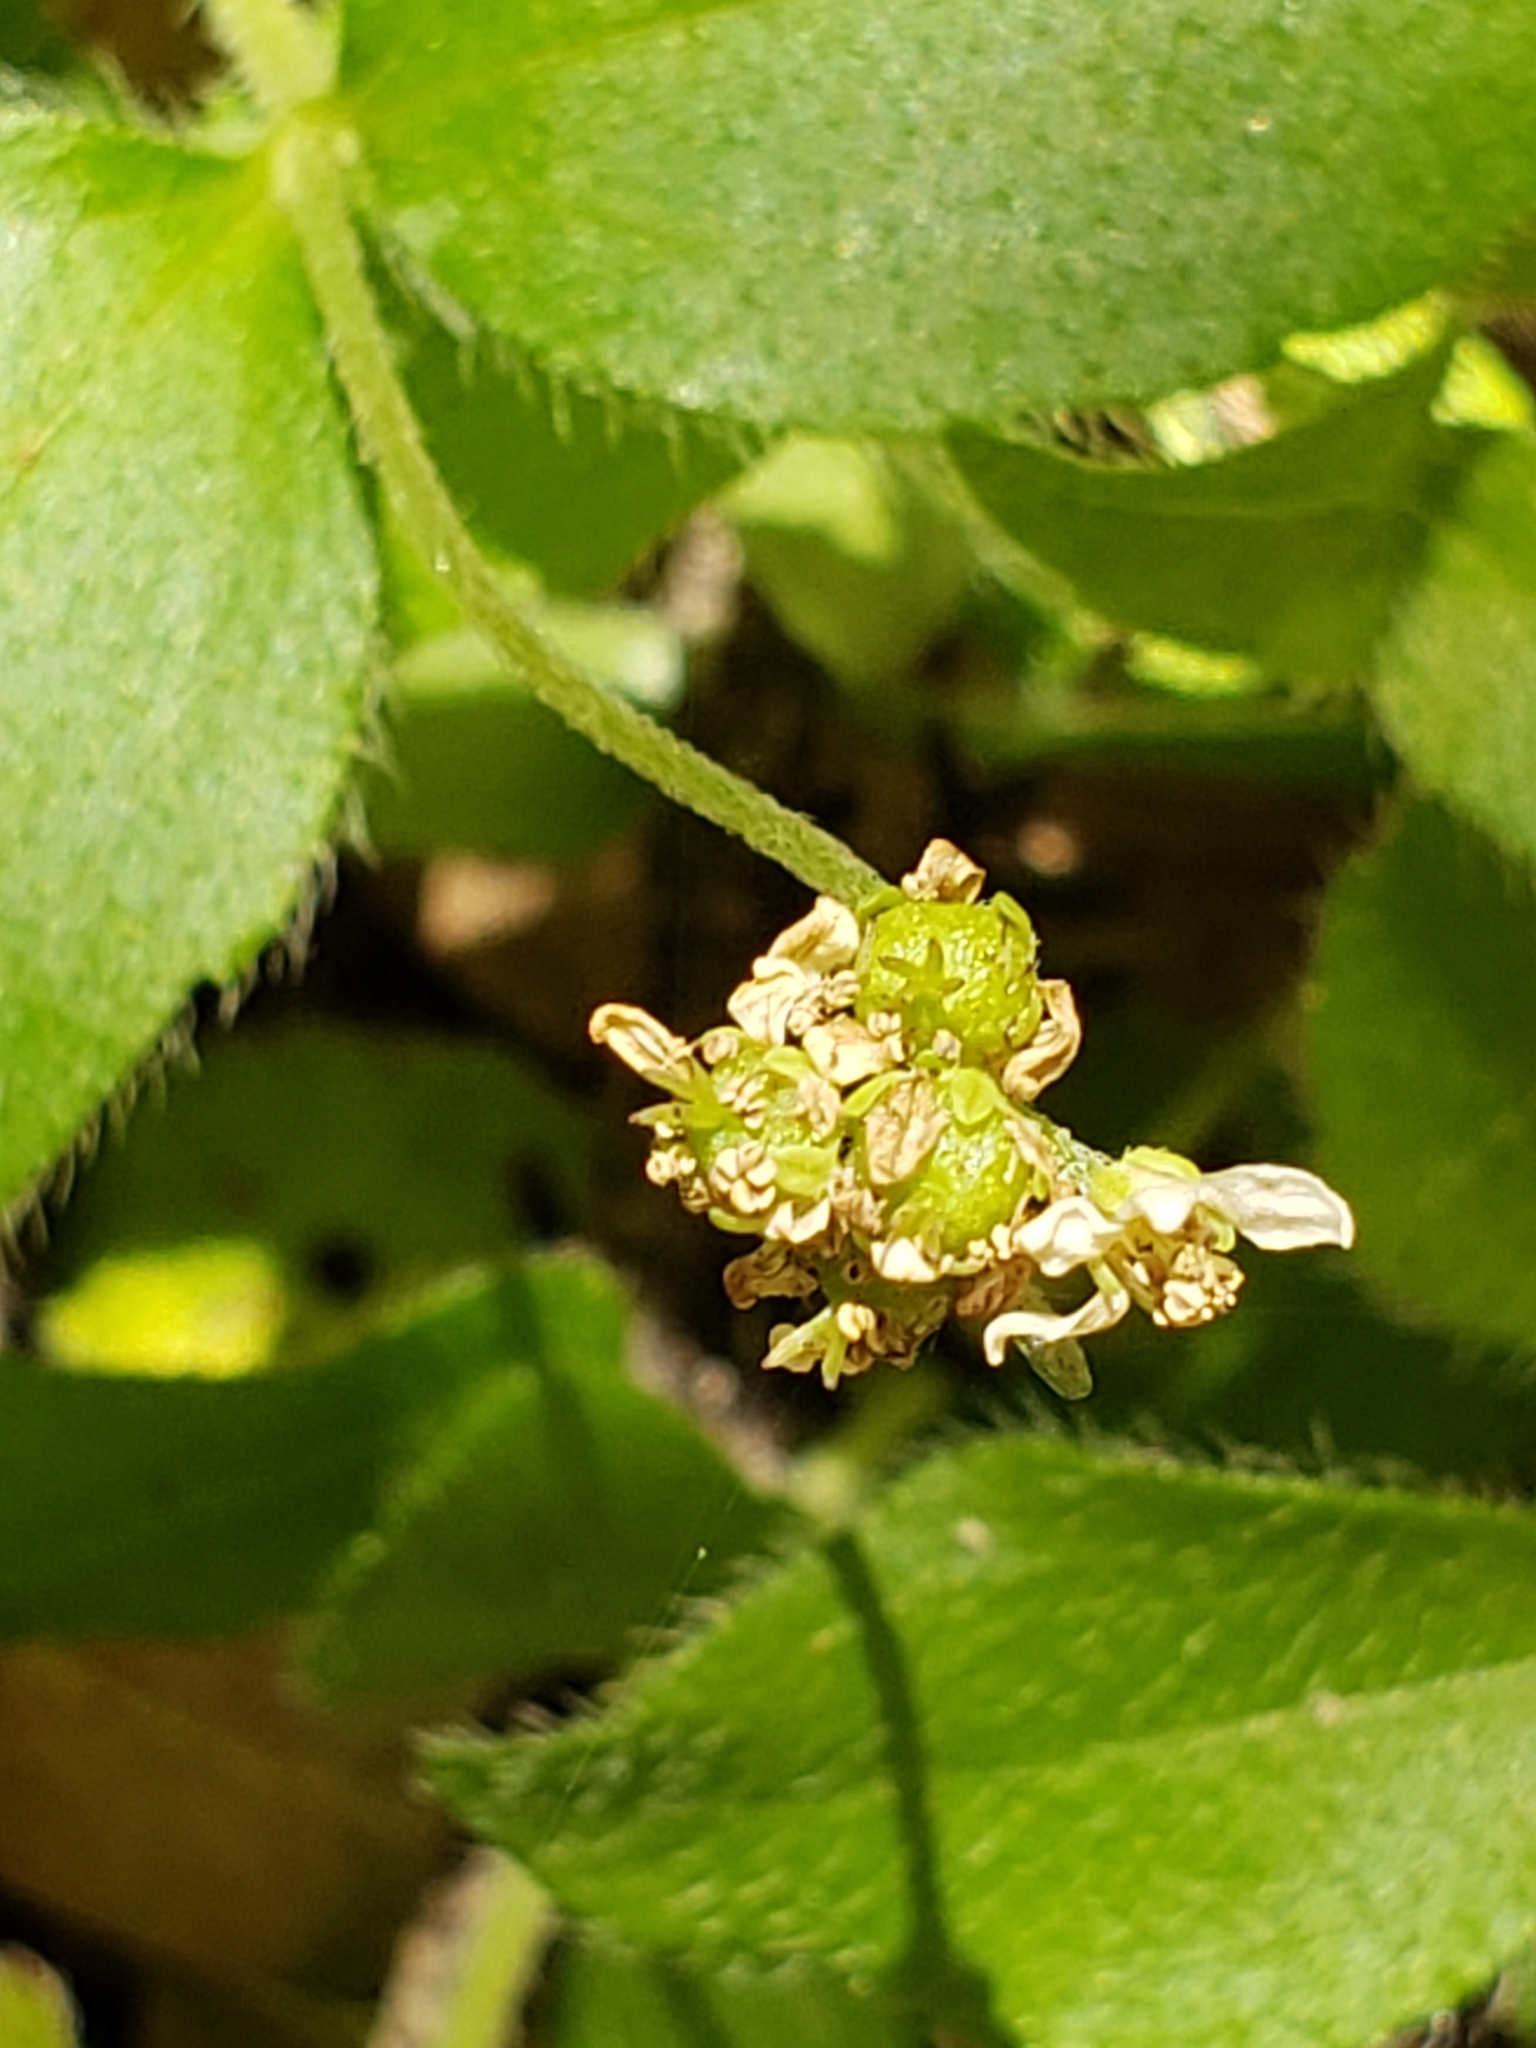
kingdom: Plantae
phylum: Tracheophyta
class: Magnoliopsida
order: Cornales
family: Hydrangeaceae
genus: Whipplea
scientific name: Whipplea modesta
